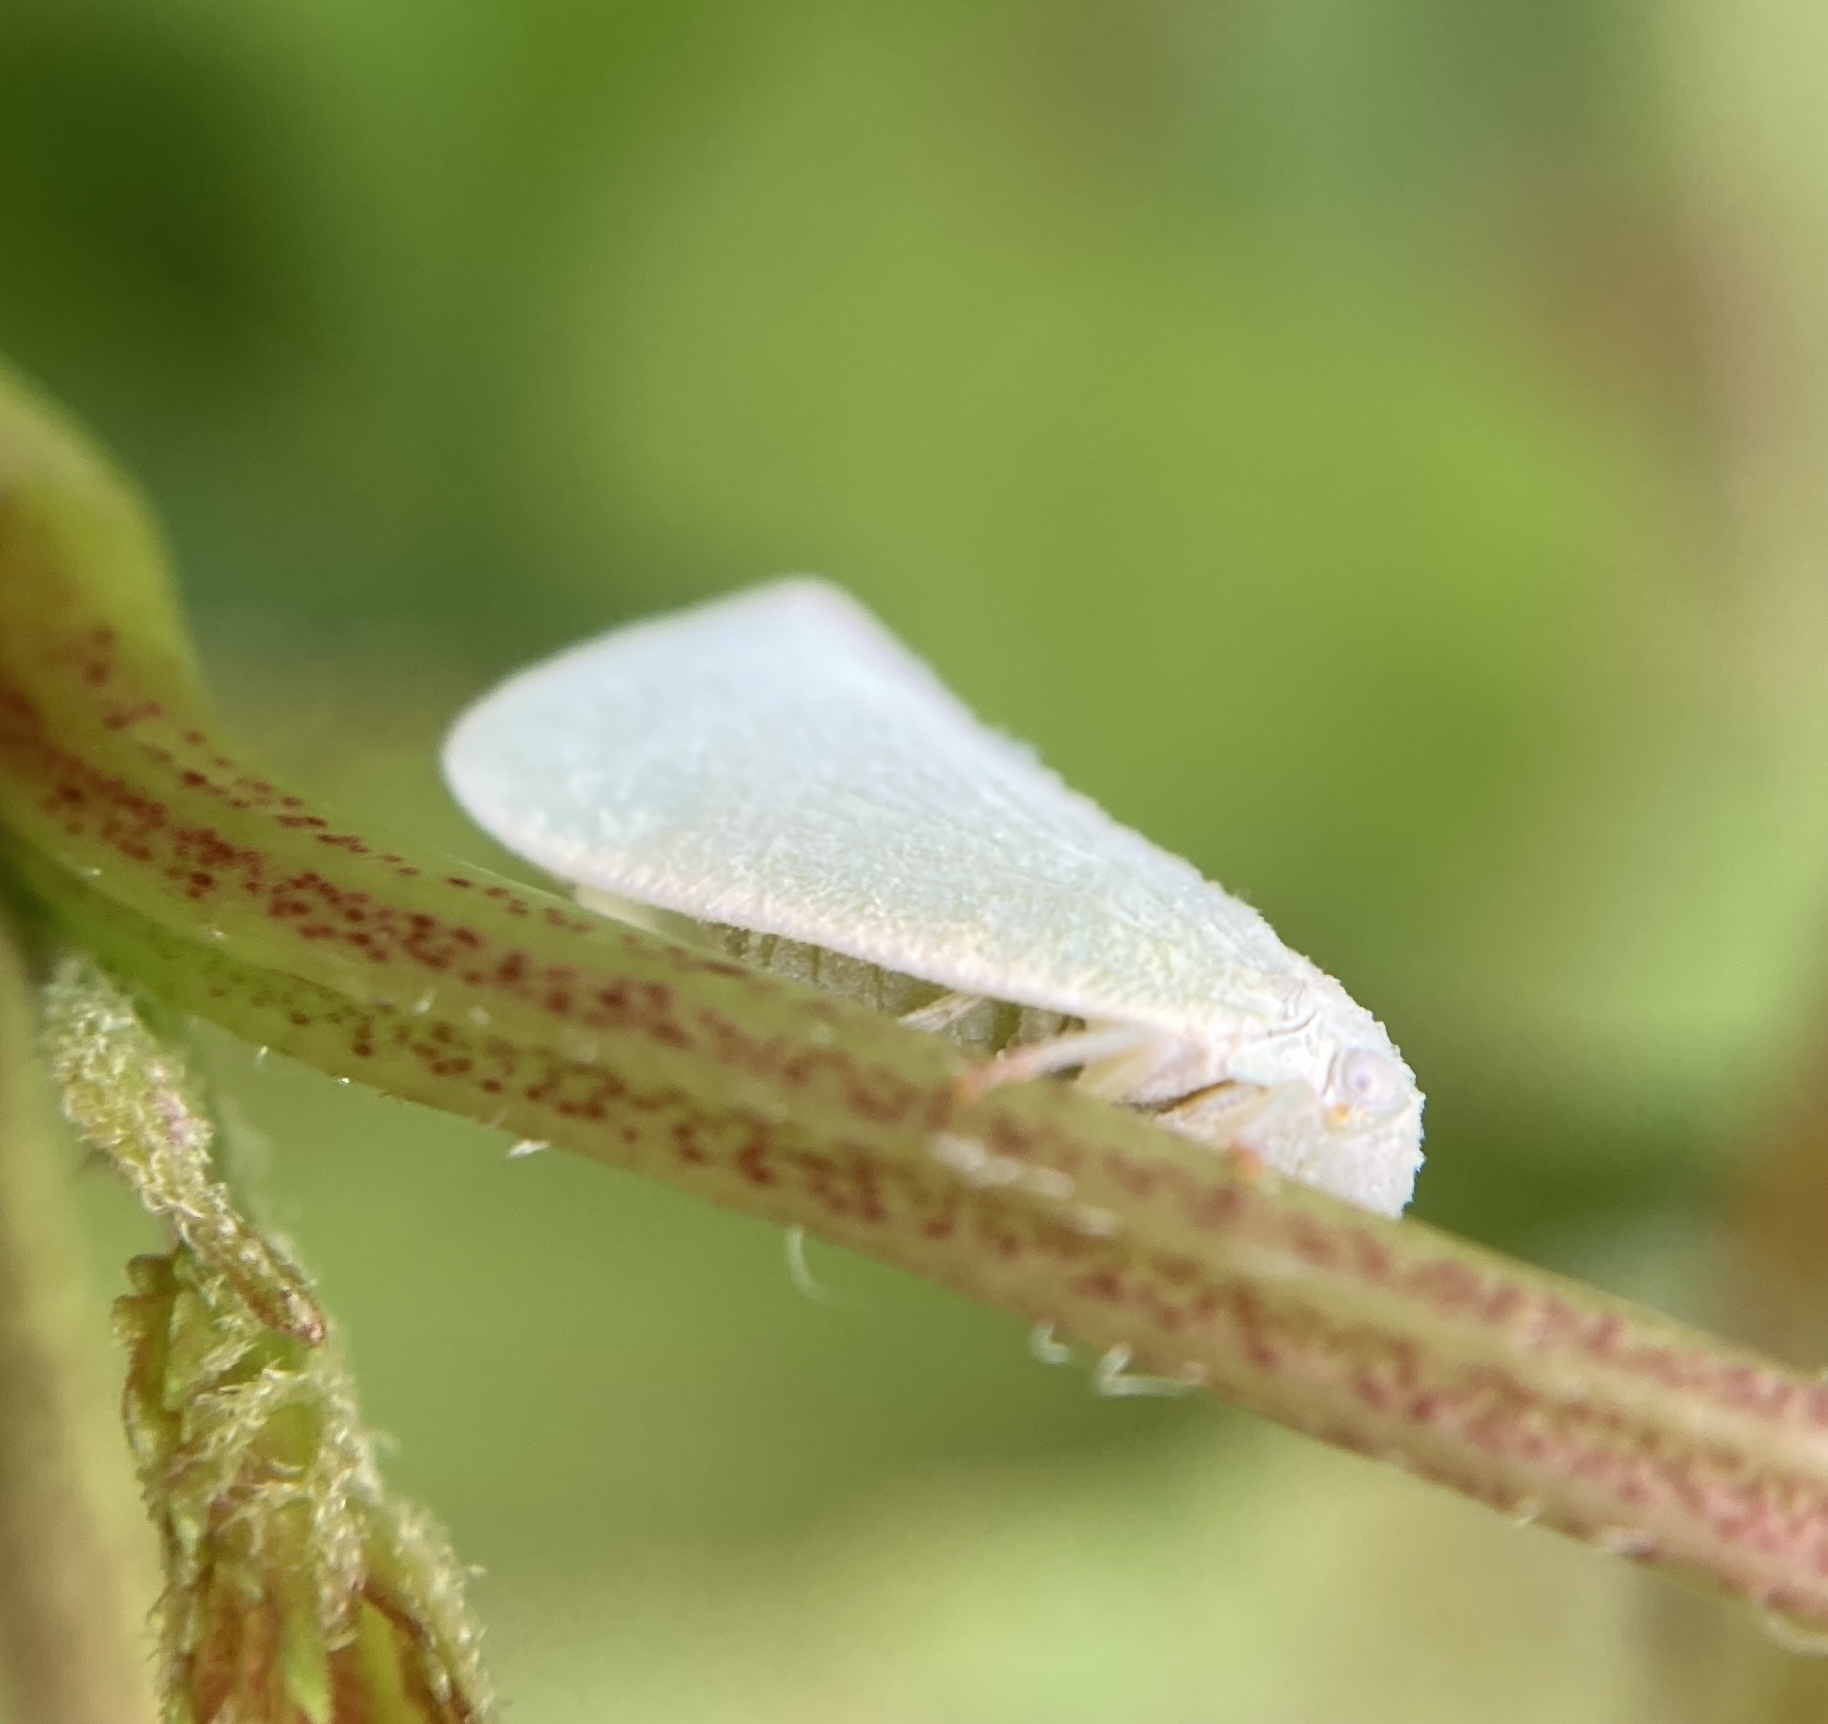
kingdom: Animalia
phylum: Arthropoda
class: Insecta
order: Hemiptera
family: Flatidae
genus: Flatormenis
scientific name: Flatormenis proxima
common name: Northern flatid planthopper
